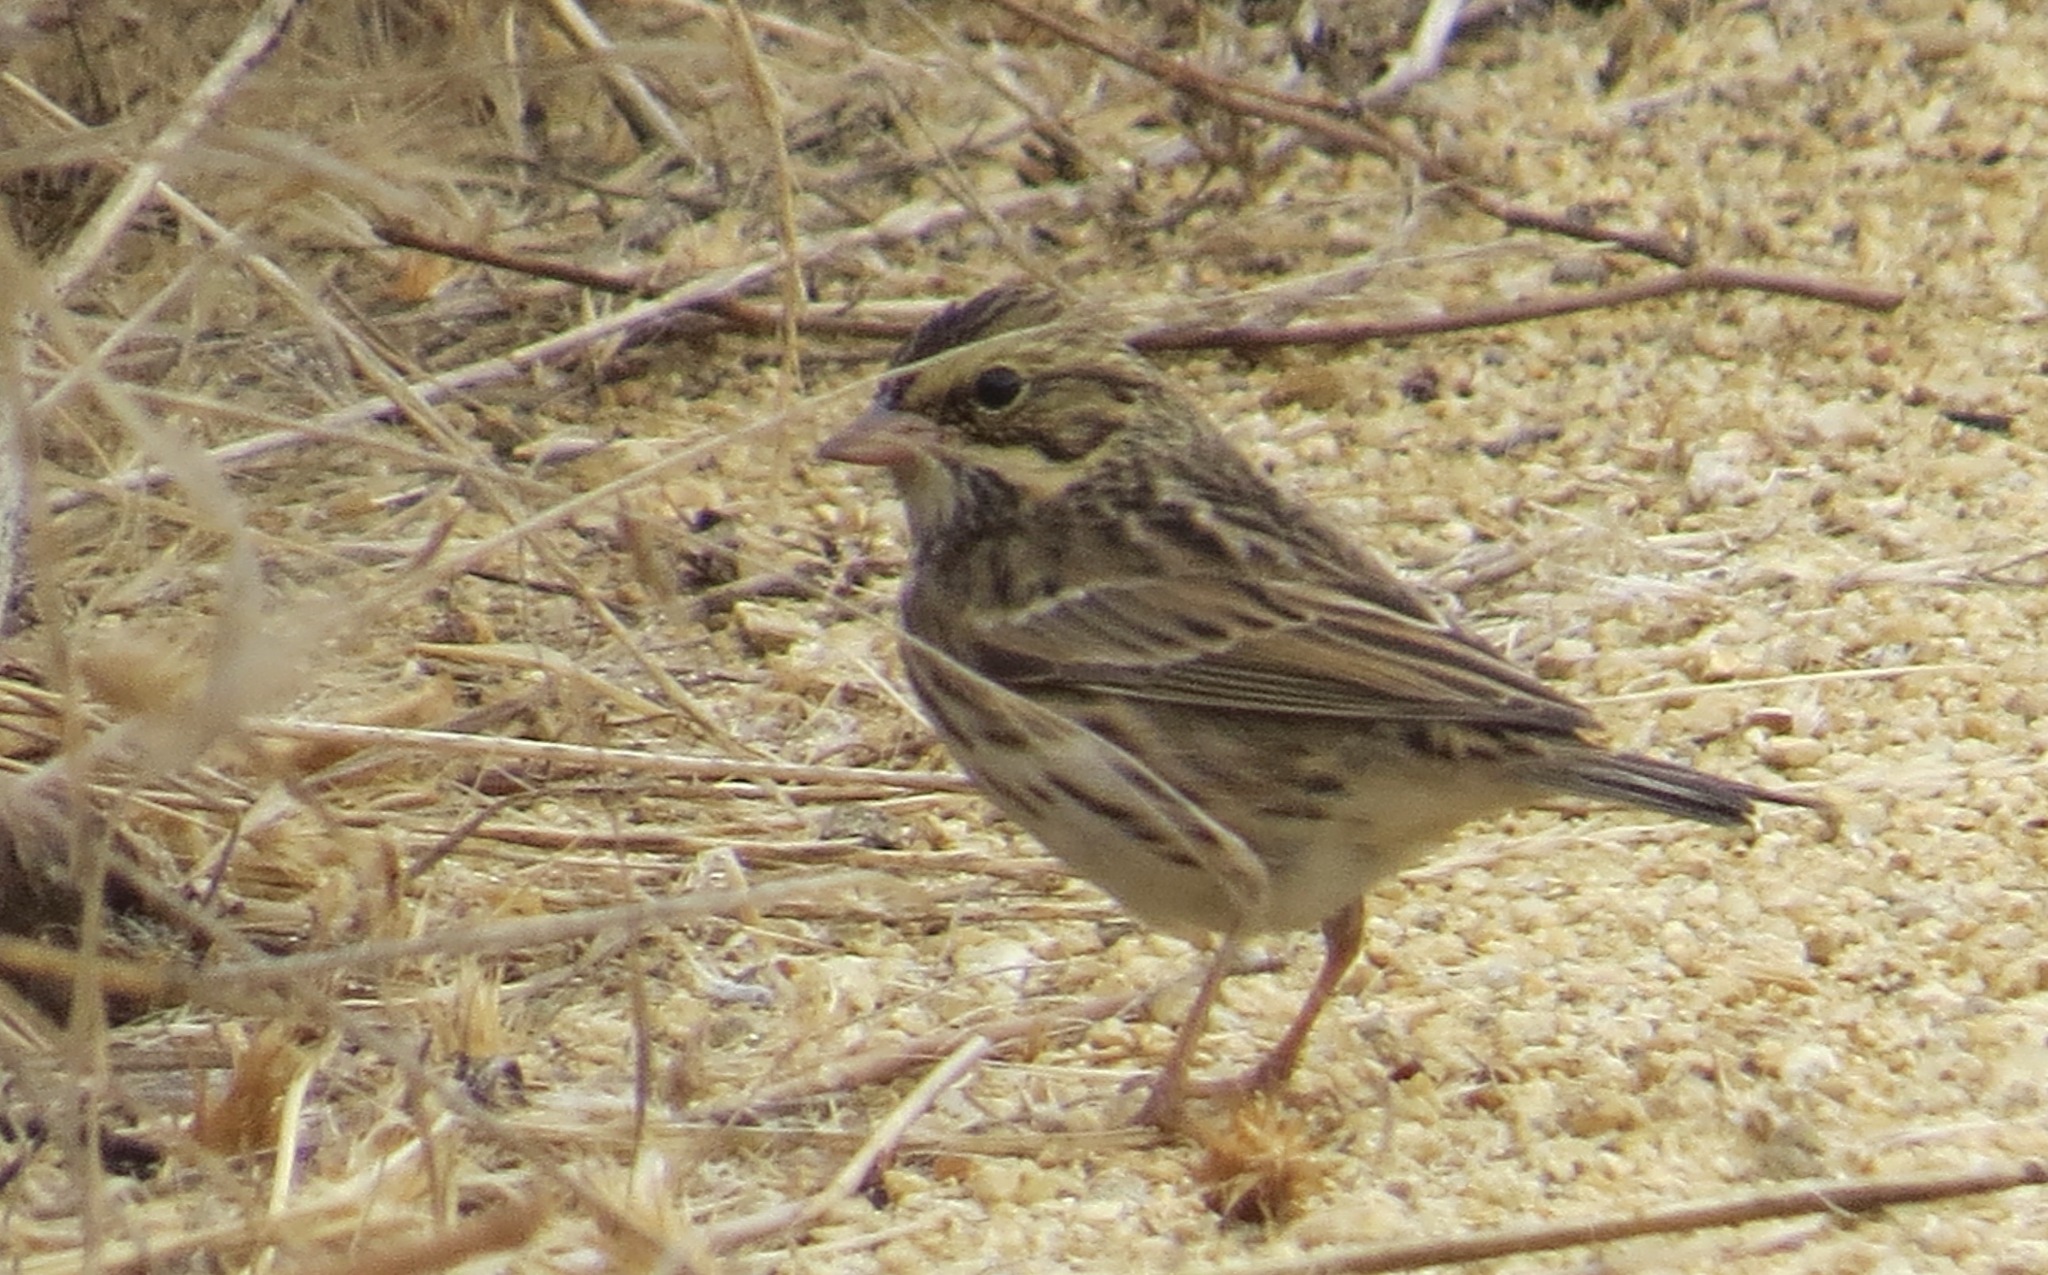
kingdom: Animalia
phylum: Chordata
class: Aves
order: Passeriformes
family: Passerellidae
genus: Passerculus
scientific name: Passerculus sandwichensis
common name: Savannah sparrow
